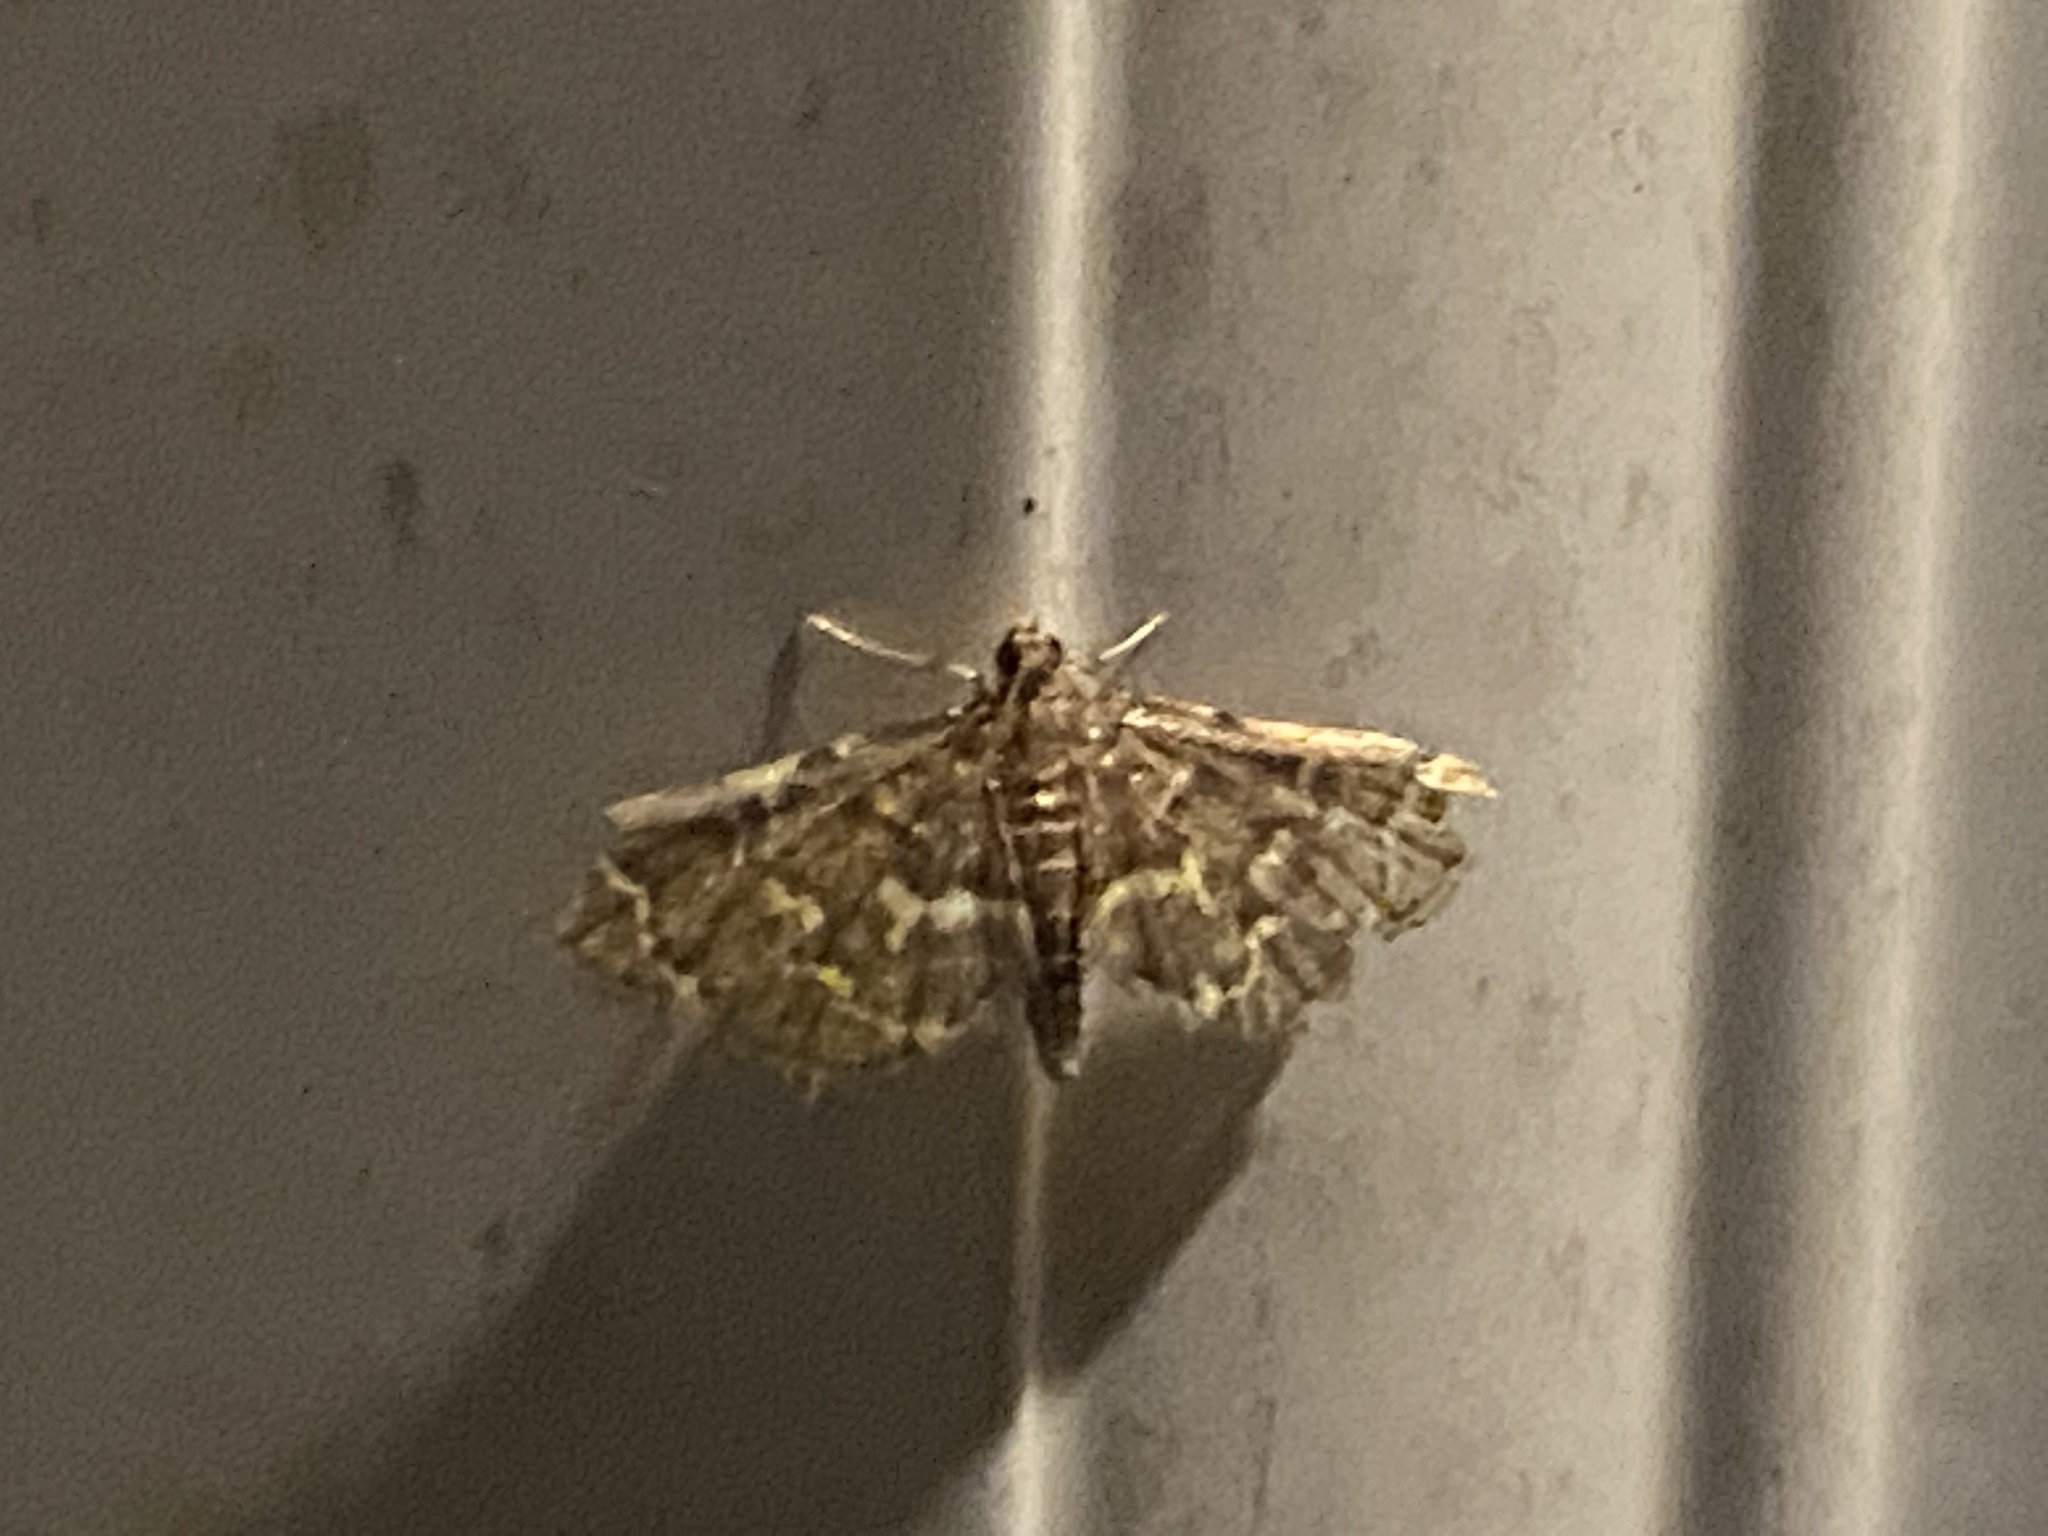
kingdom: Animalia
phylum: Arthropoda
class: Insecta
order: Lepidoptera
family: Crambidae
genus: Anageshna
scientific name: Anageshna primordialis
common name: Yellow-spotted webworm moth
